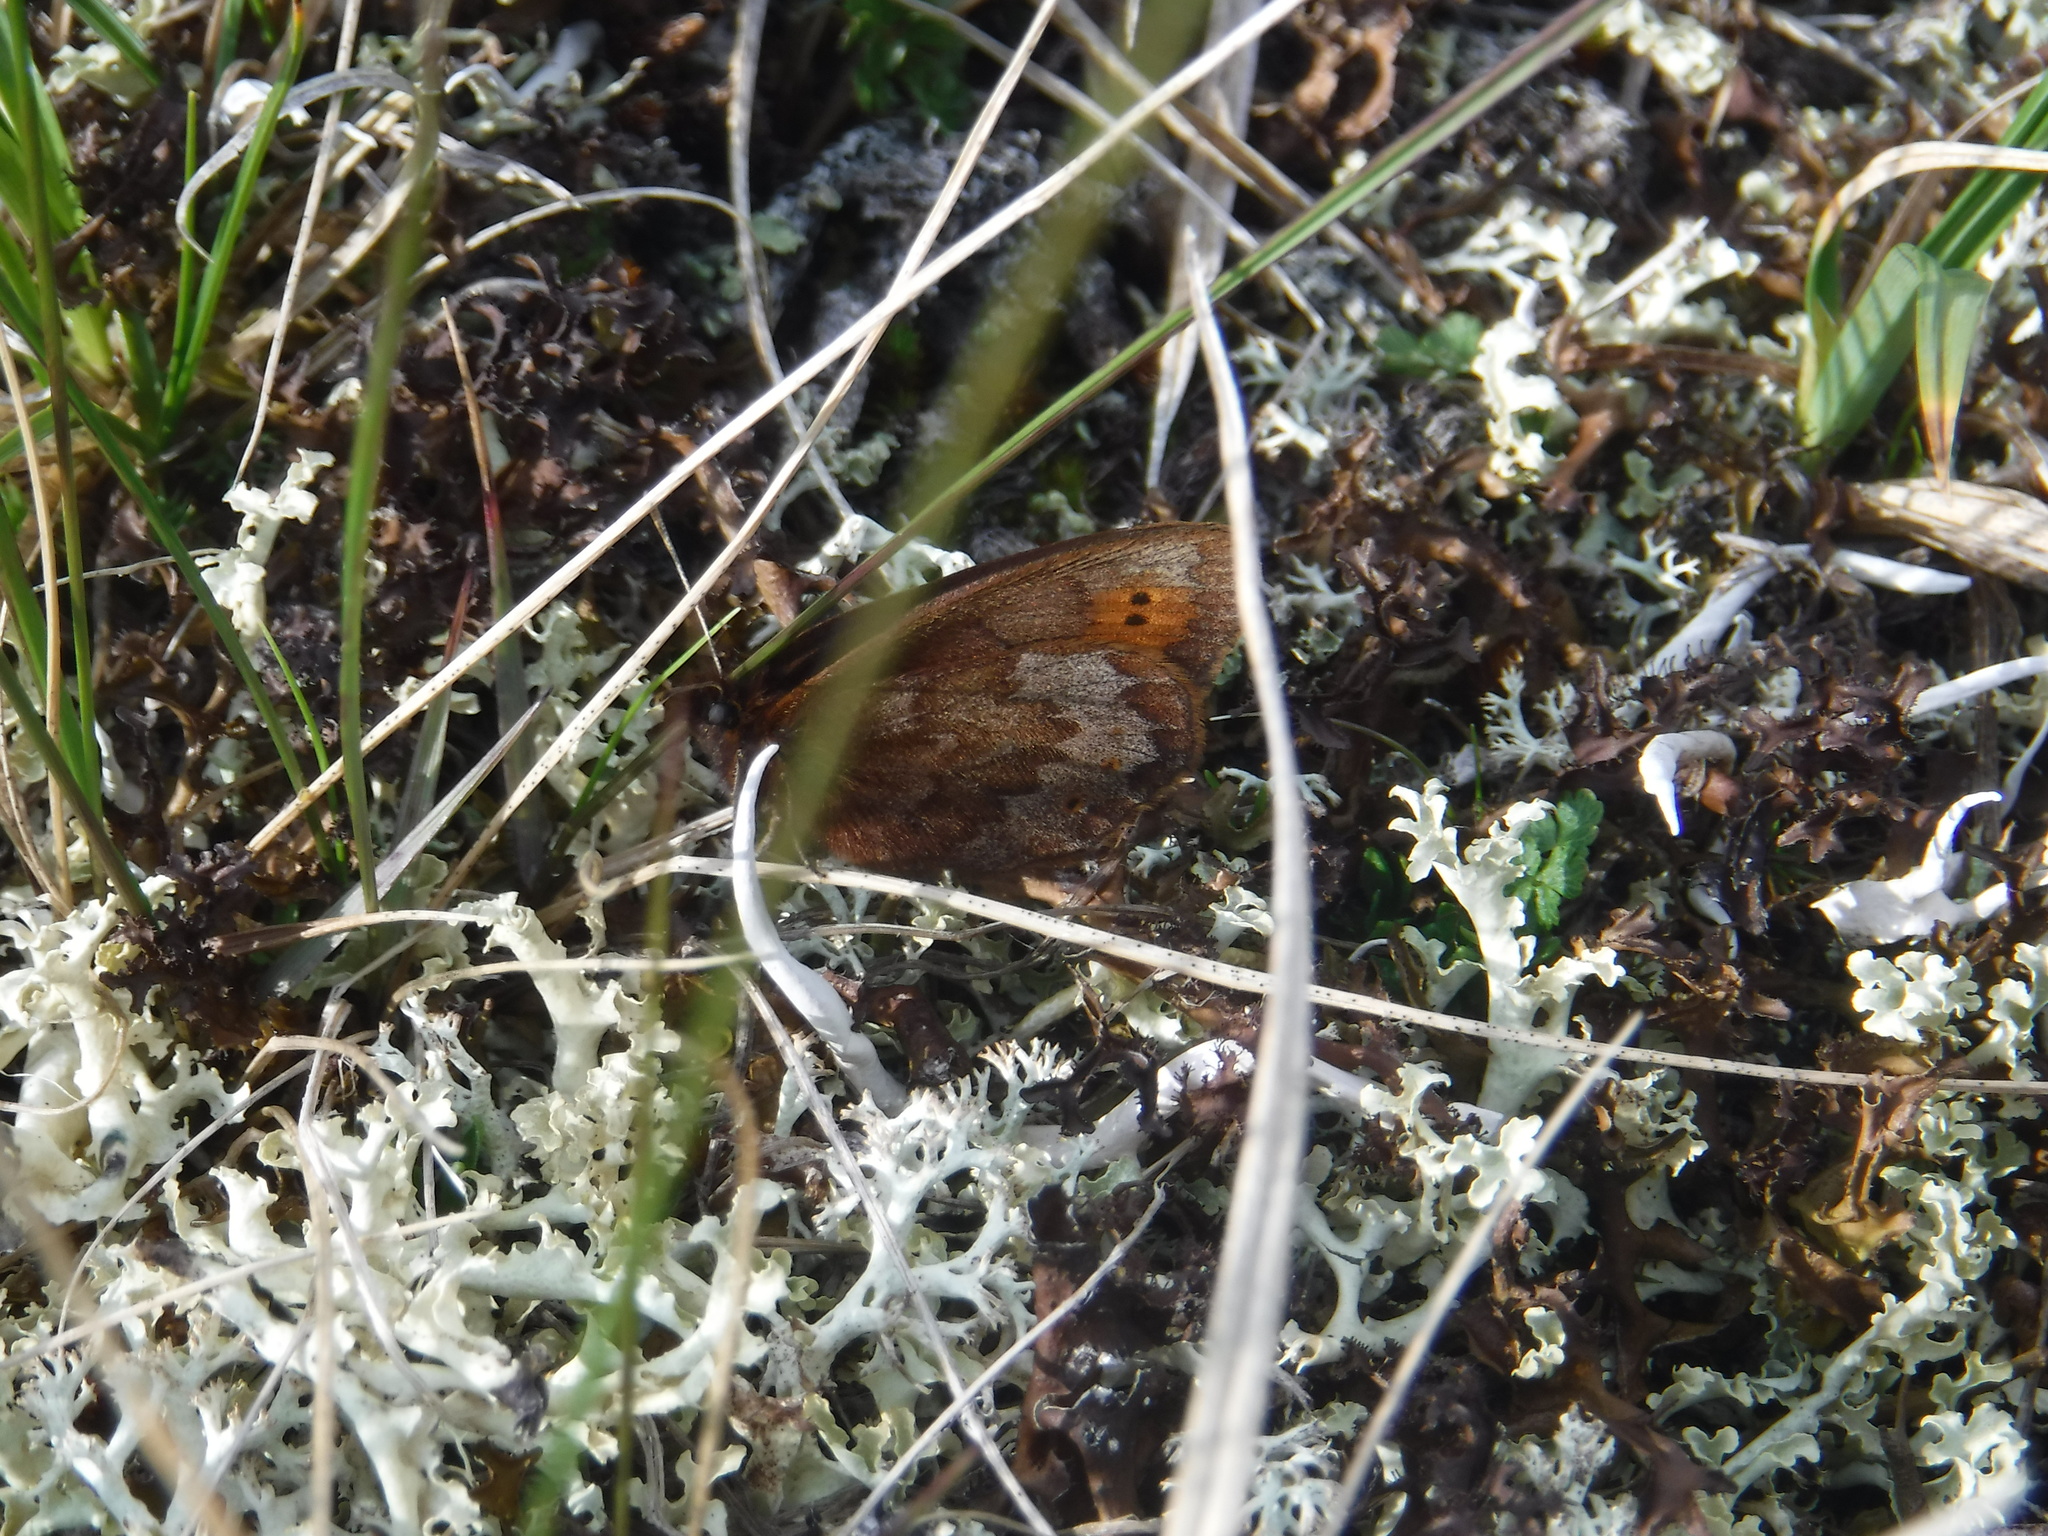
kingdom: Animalia
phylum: Arthropoda
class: Insecta
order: Lepidoptera
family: Nymphalidae
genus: Erebia
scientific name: Erebia dabanensis
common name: Four-dotted alpine
